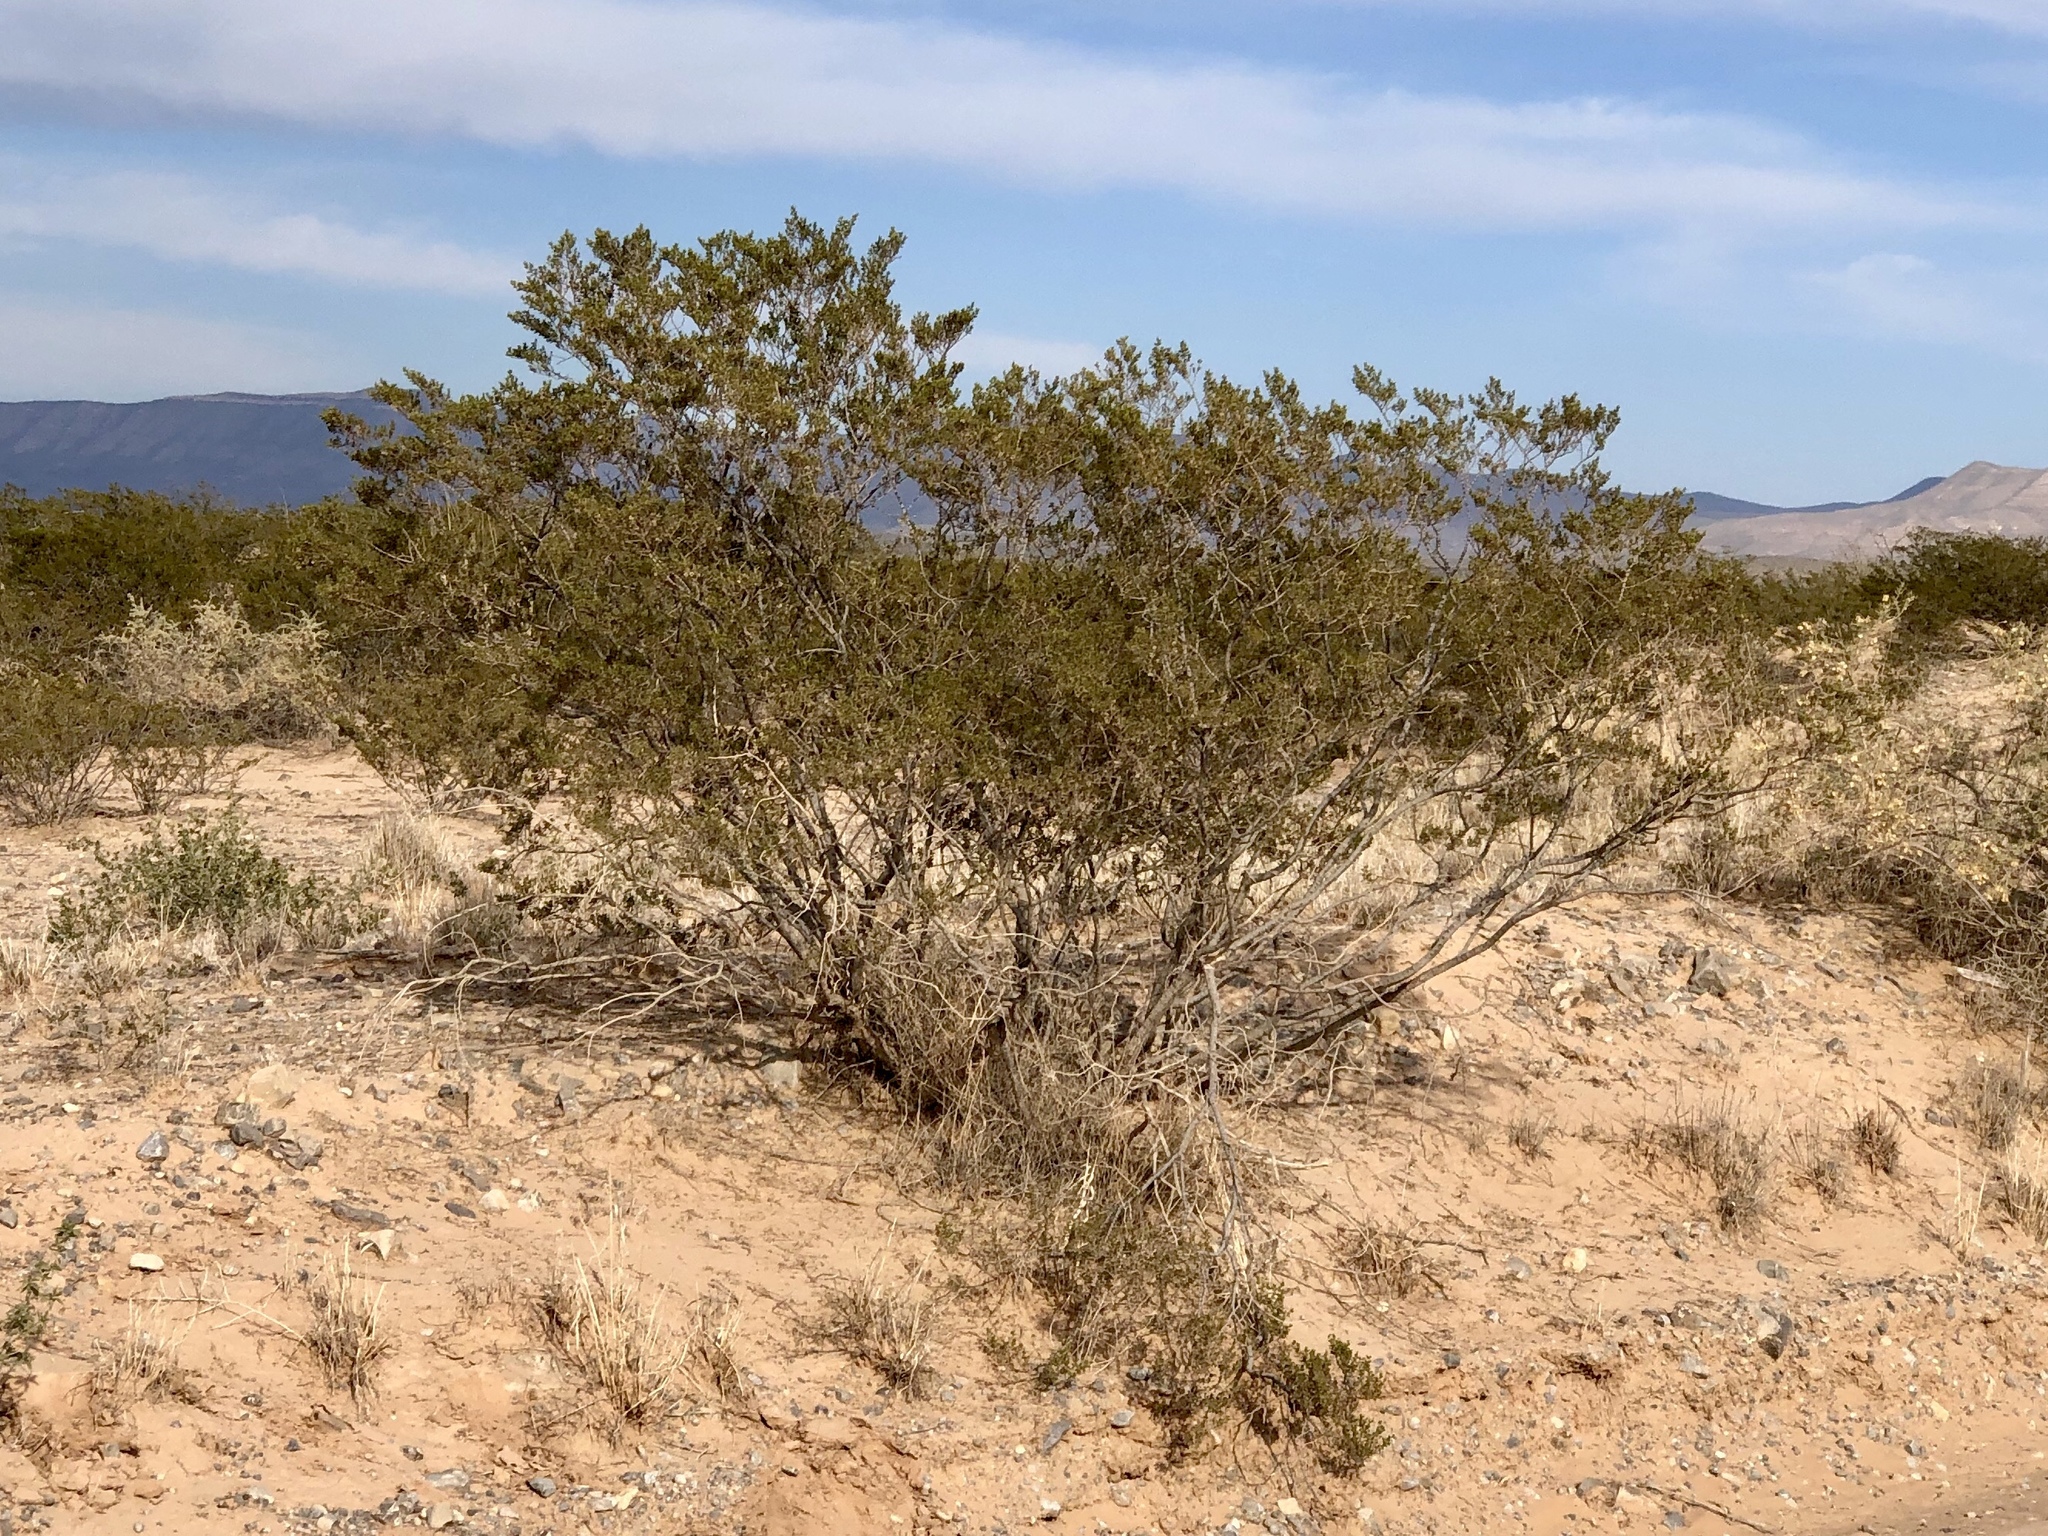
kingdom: Plantae
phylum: Tracheophyta
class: Magnoliopsida
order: Zygophyllales
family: Zygophyllaceae
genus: Larrea
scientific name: Larrea tridentata
